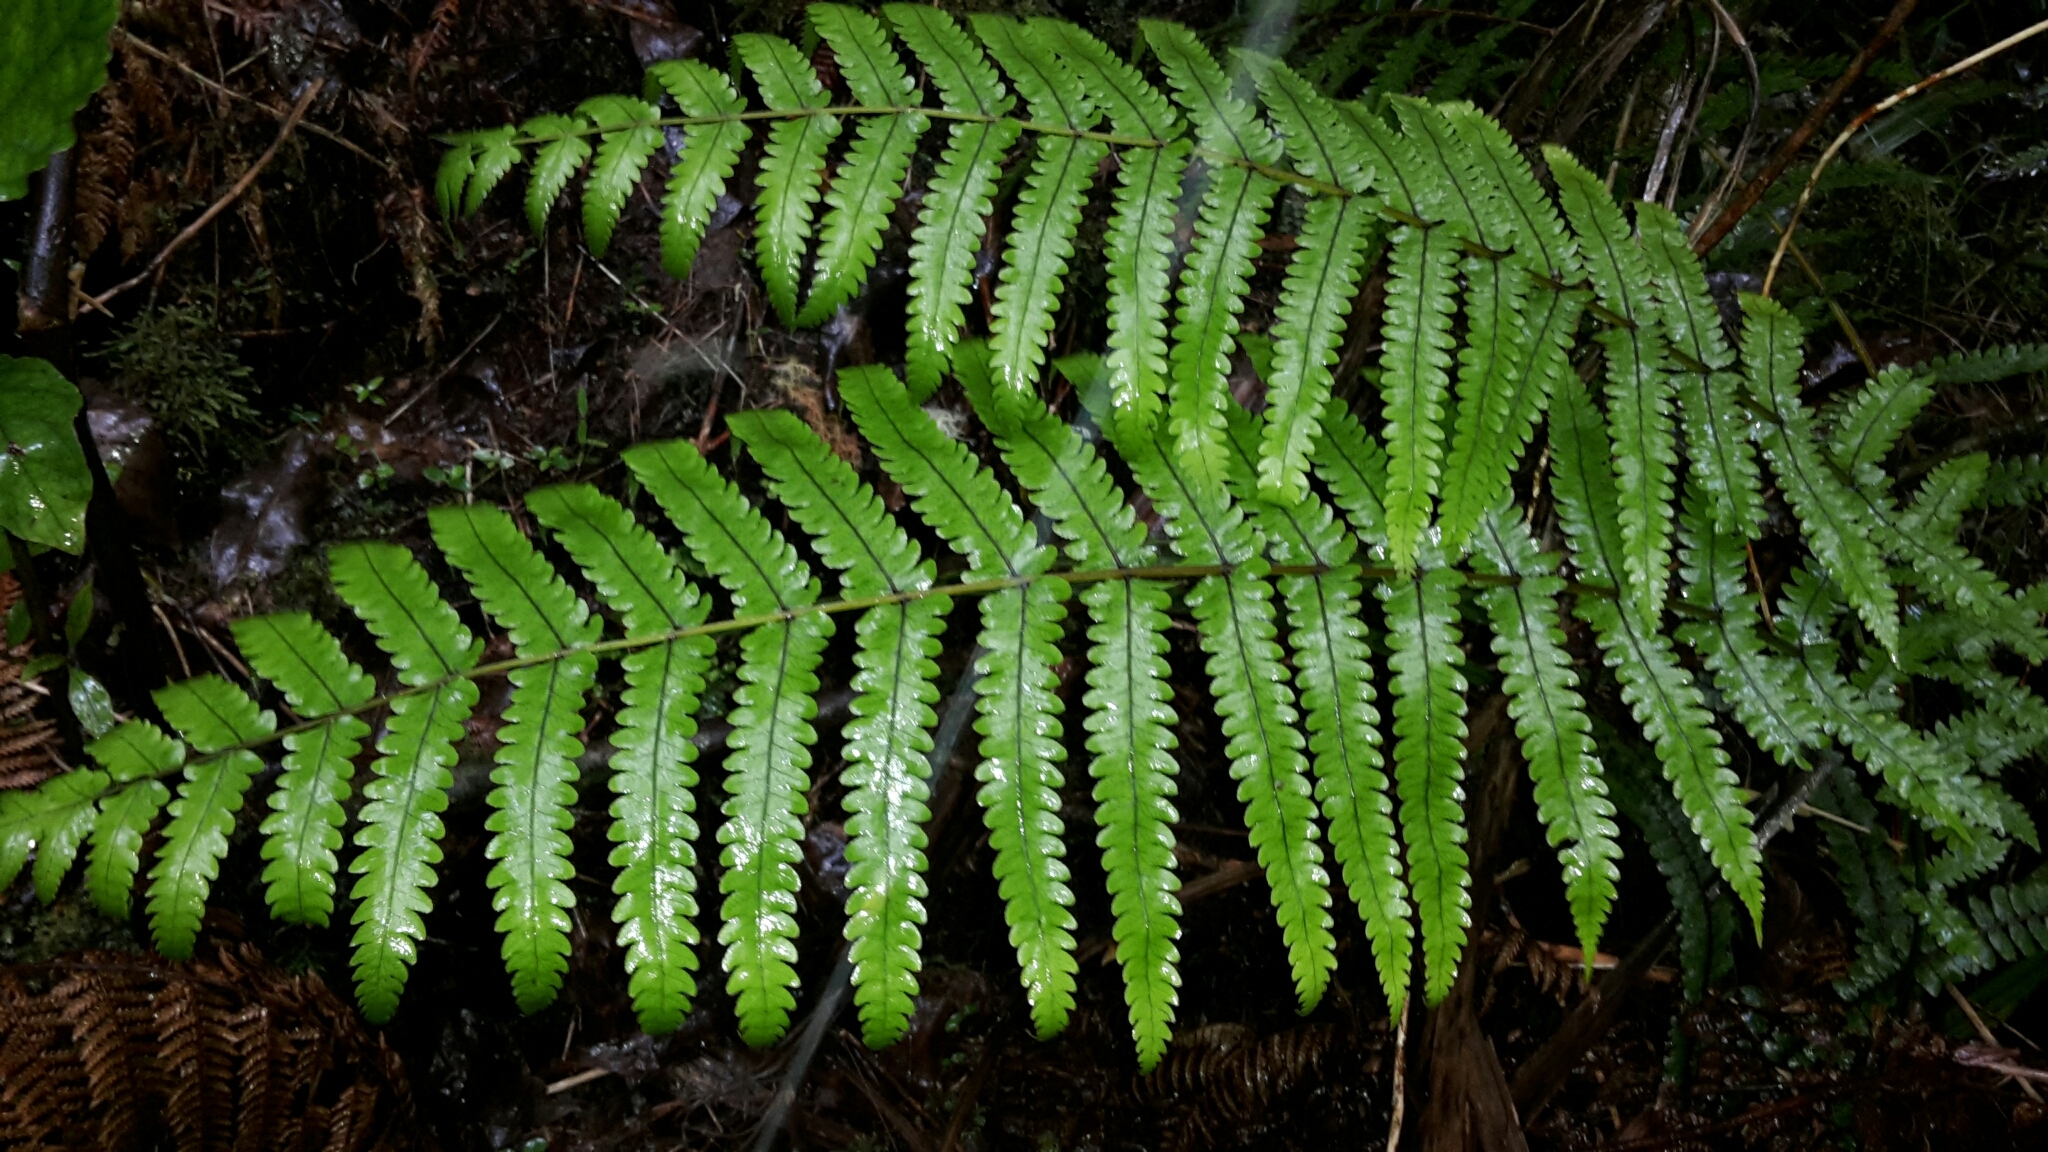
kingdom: Plantae
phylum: Tracheophyta
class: Polypodiopsida
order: Polypodiales
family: Thelypteridaceae
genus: Pakau
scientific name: Pakau pennigera
